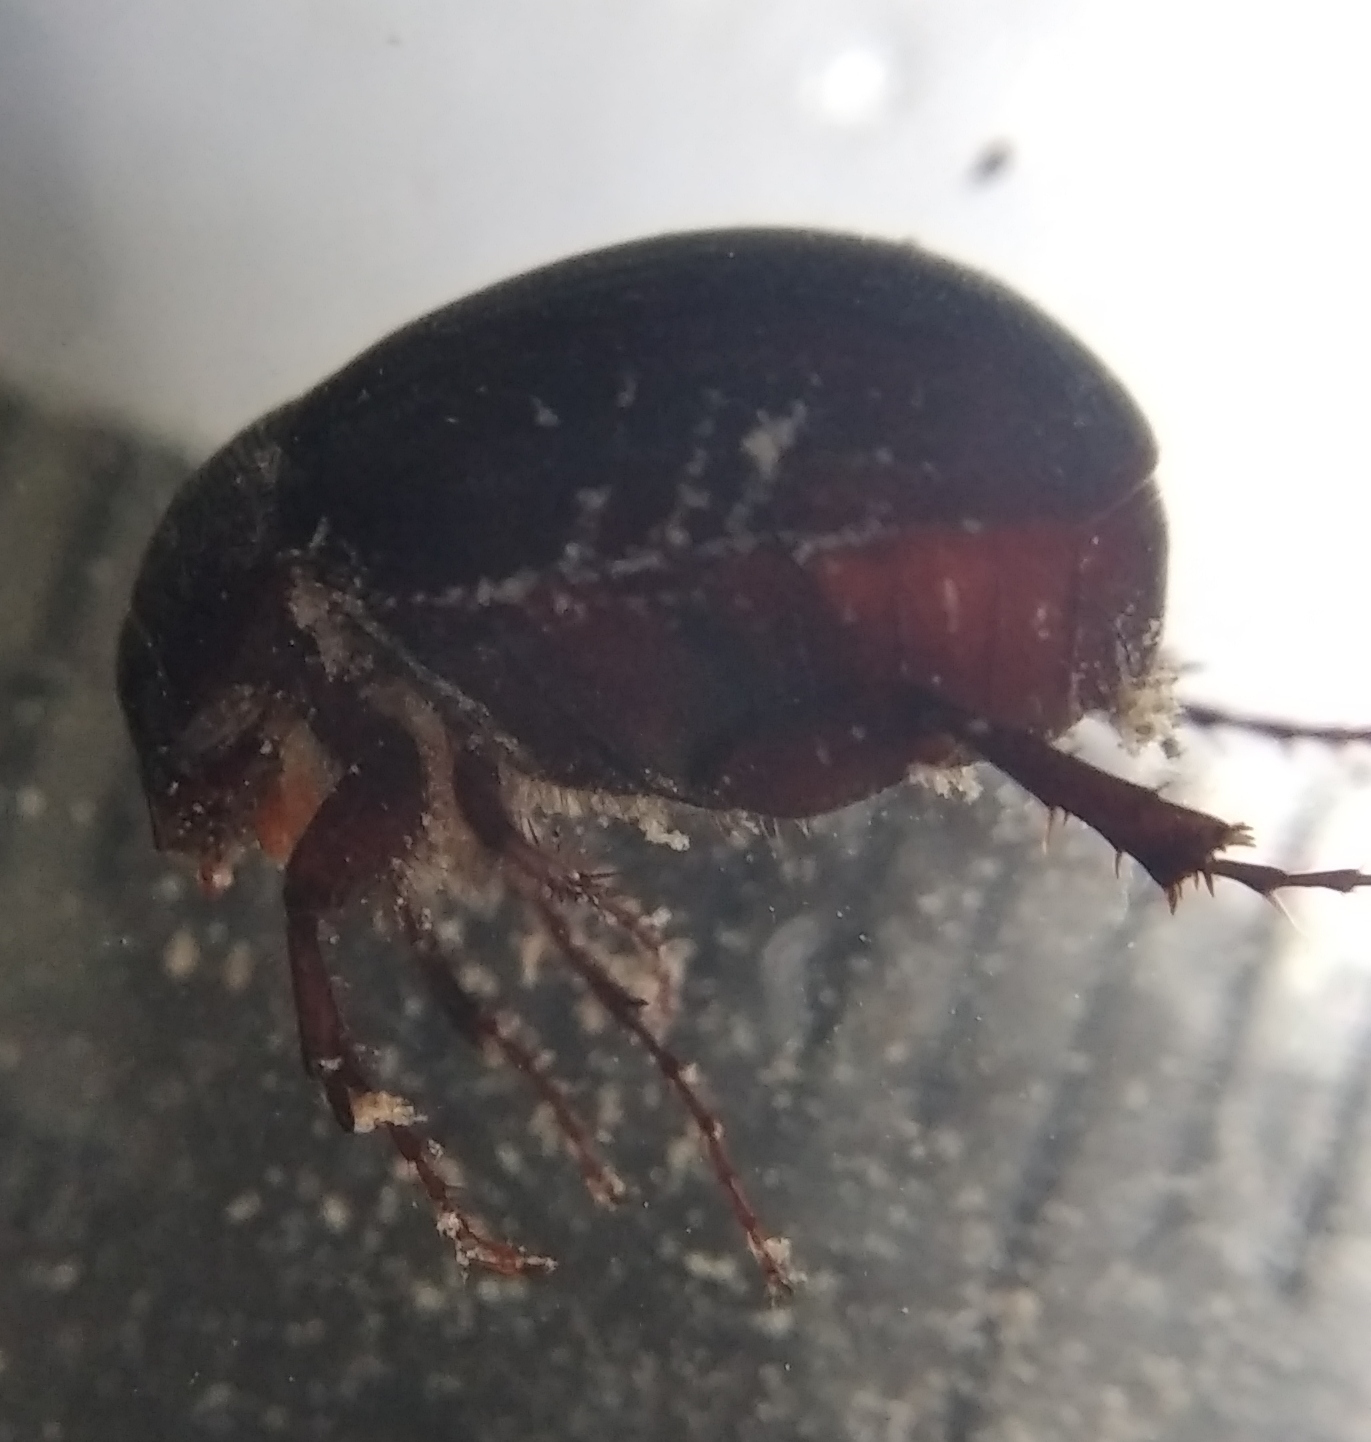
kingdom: Animalia
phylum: Arthropoda
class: Insecta
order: Coleoptera
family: Scarabaeidae
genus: Maladera
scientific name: Maladera holosericea
